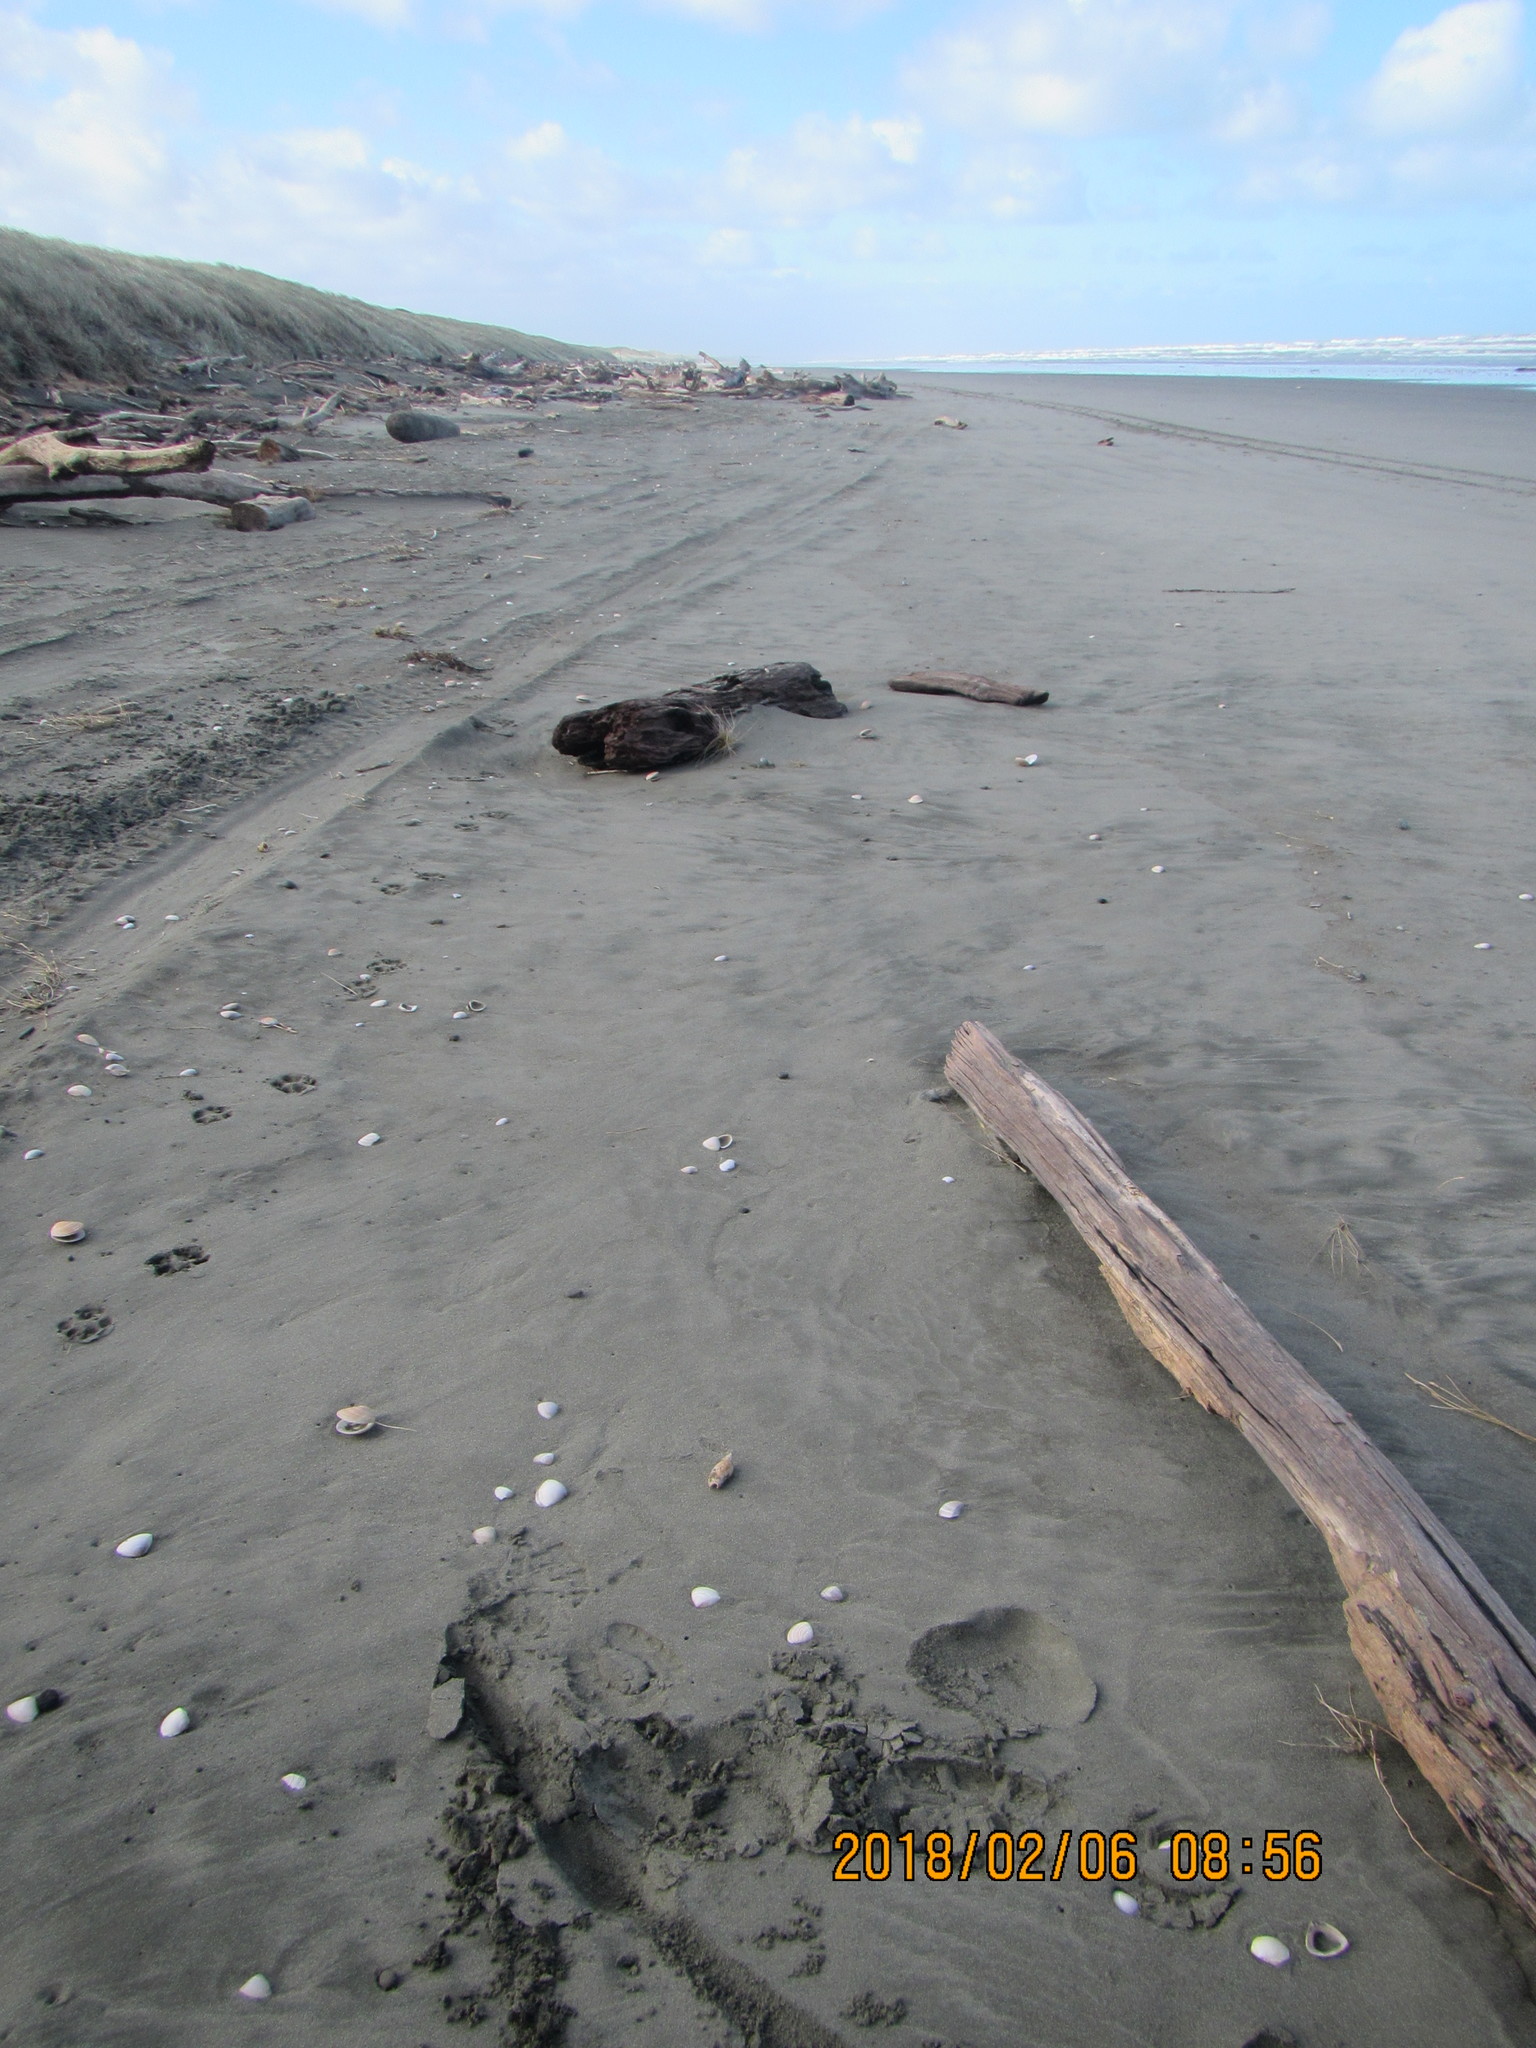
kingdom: Animalia
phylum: Mollusca
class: Gastropoda
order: Neogastropoda
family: Volutidae
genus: Alcithoe
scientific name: Alcithoe fusus
